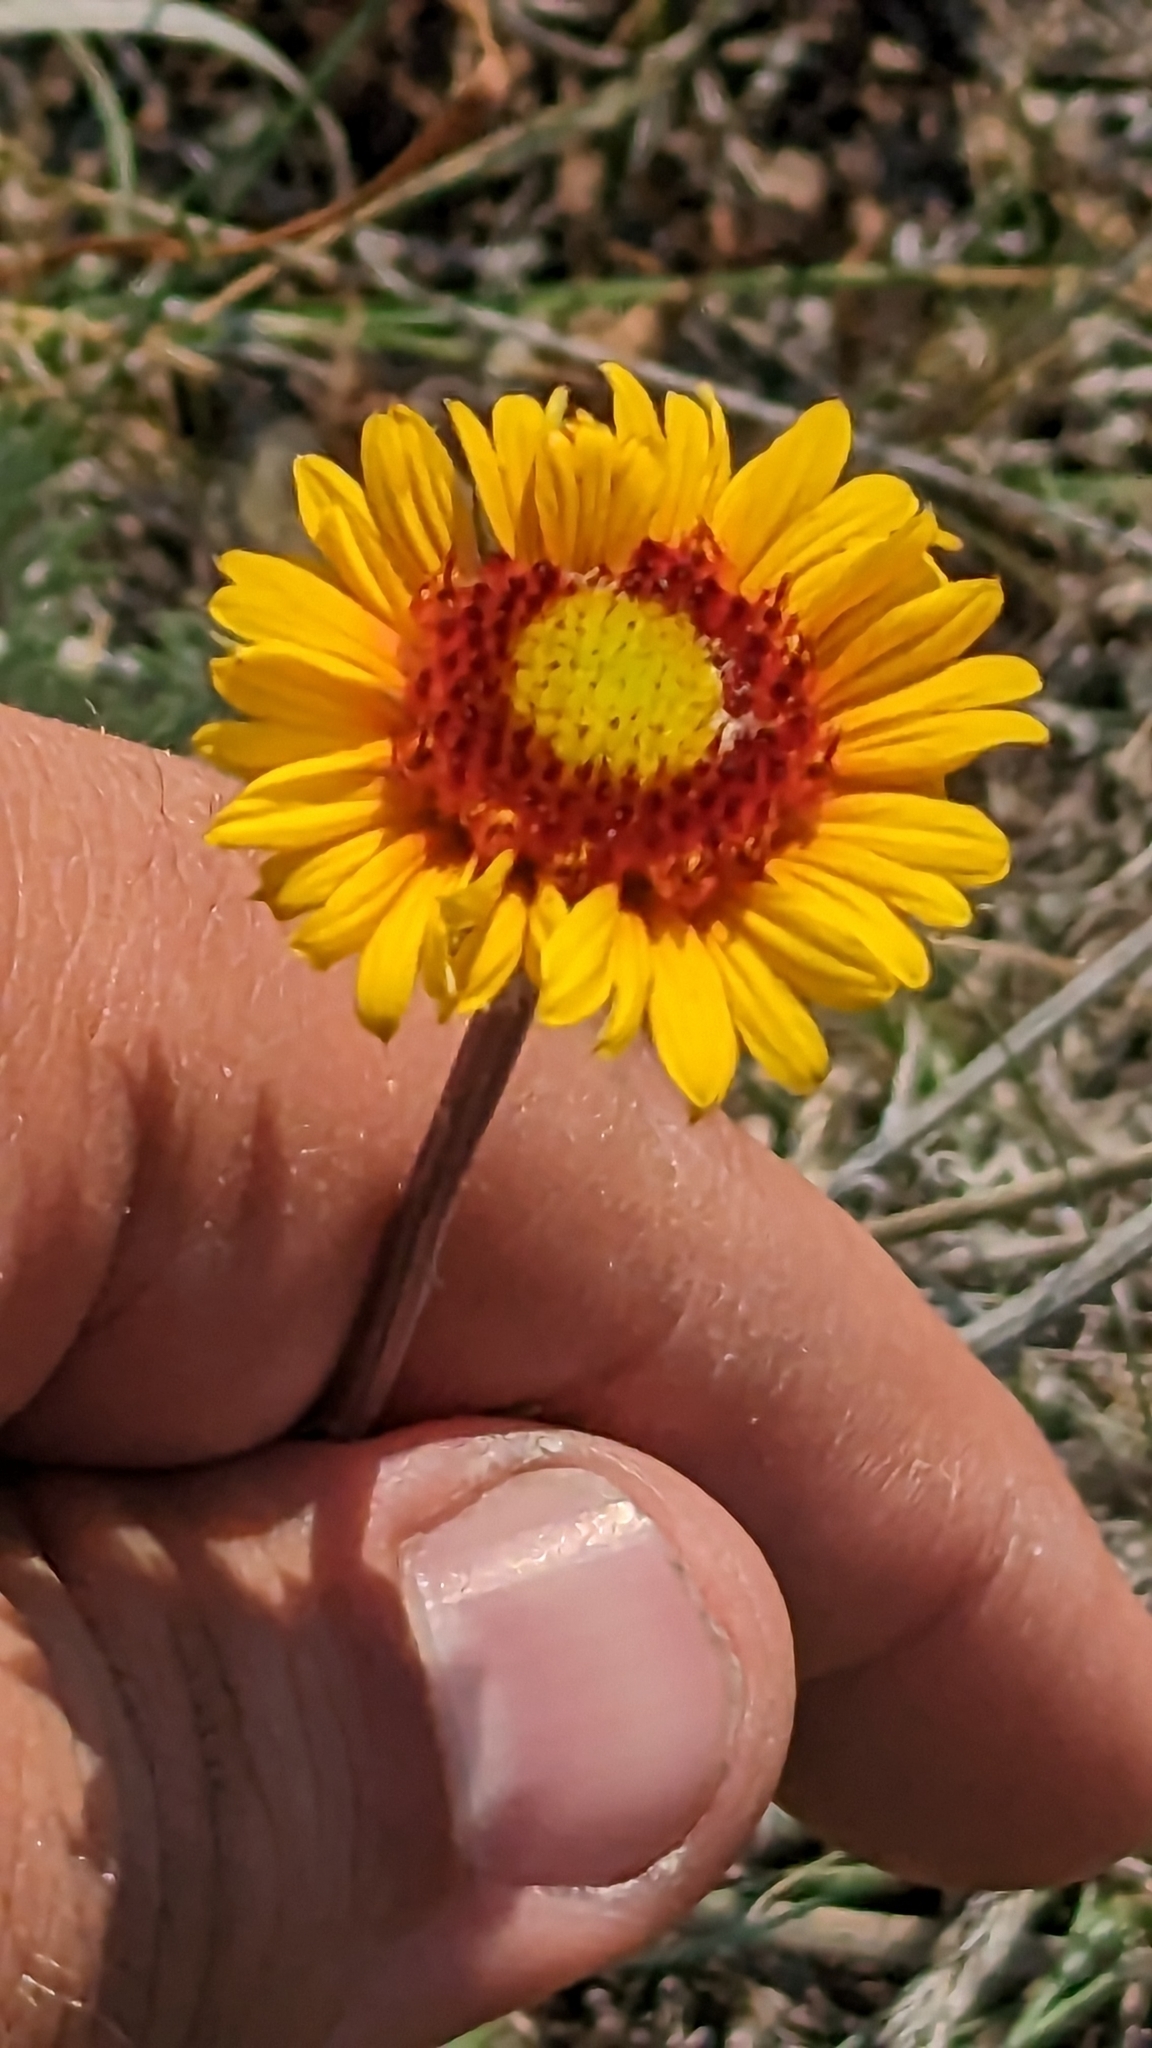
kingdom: Plantae
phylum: Tracheophyta
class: Magnoliopsida
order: Asterales
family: Asteraceae
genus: Gaillardia
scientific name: Gaillardia aristata
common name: Blanket-flower
